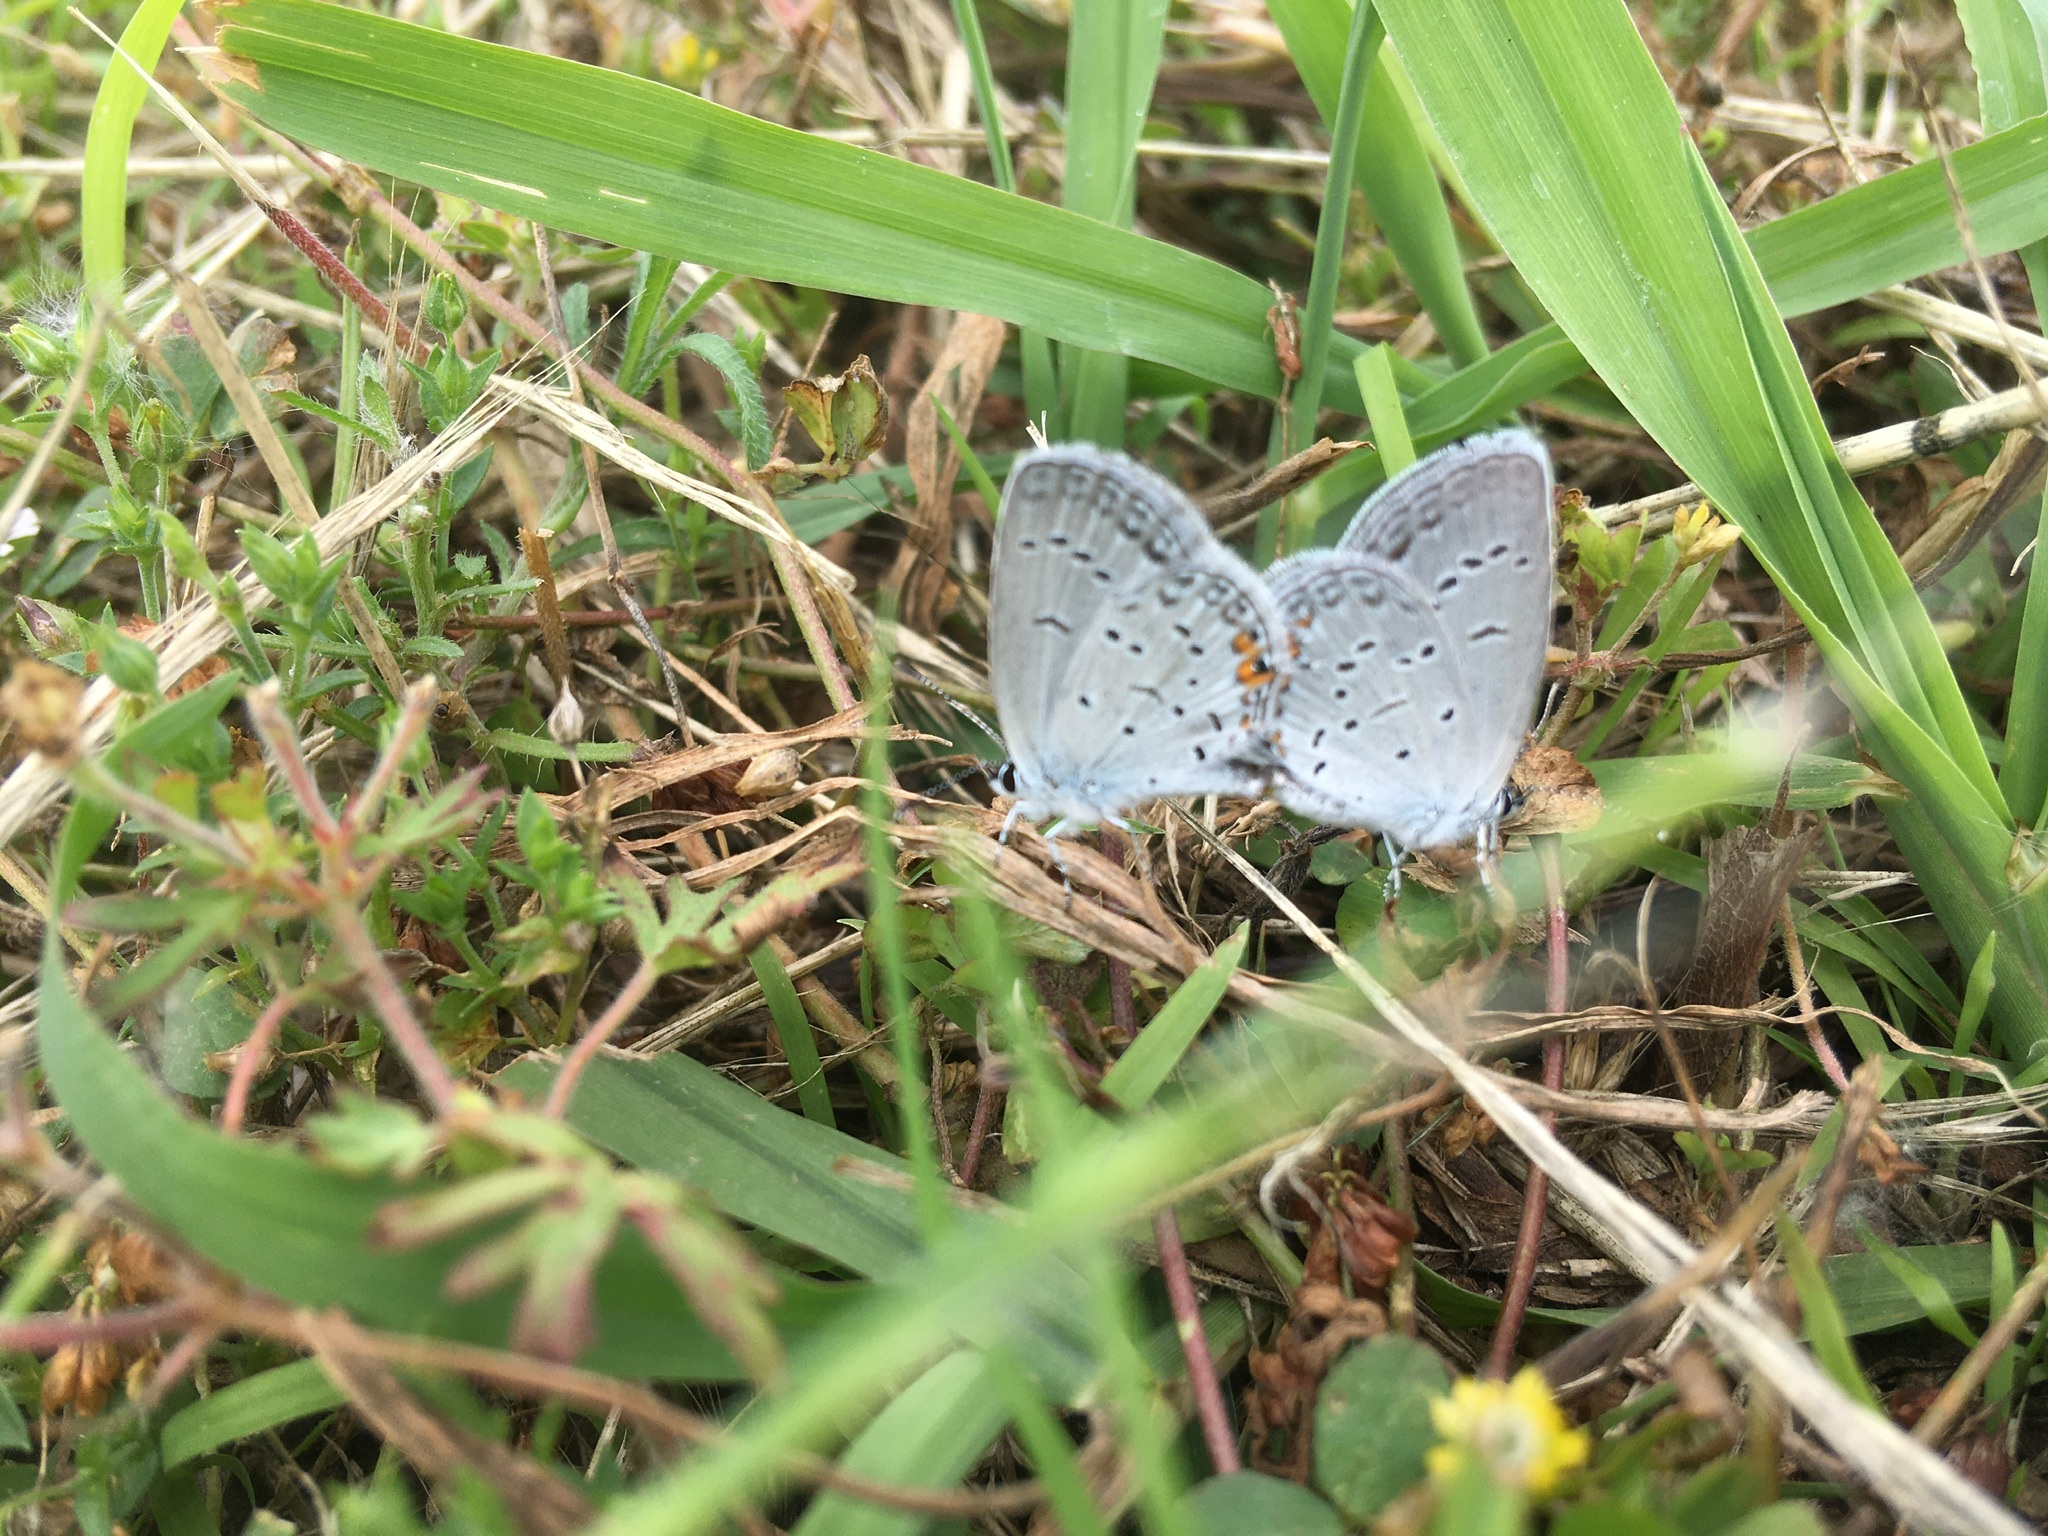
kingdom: Animalia
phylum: Arthropoda
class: Insecta
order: Lepidoptera
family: Lycaenidae
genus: Elkalyce
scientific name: Elkalyce comyntas
